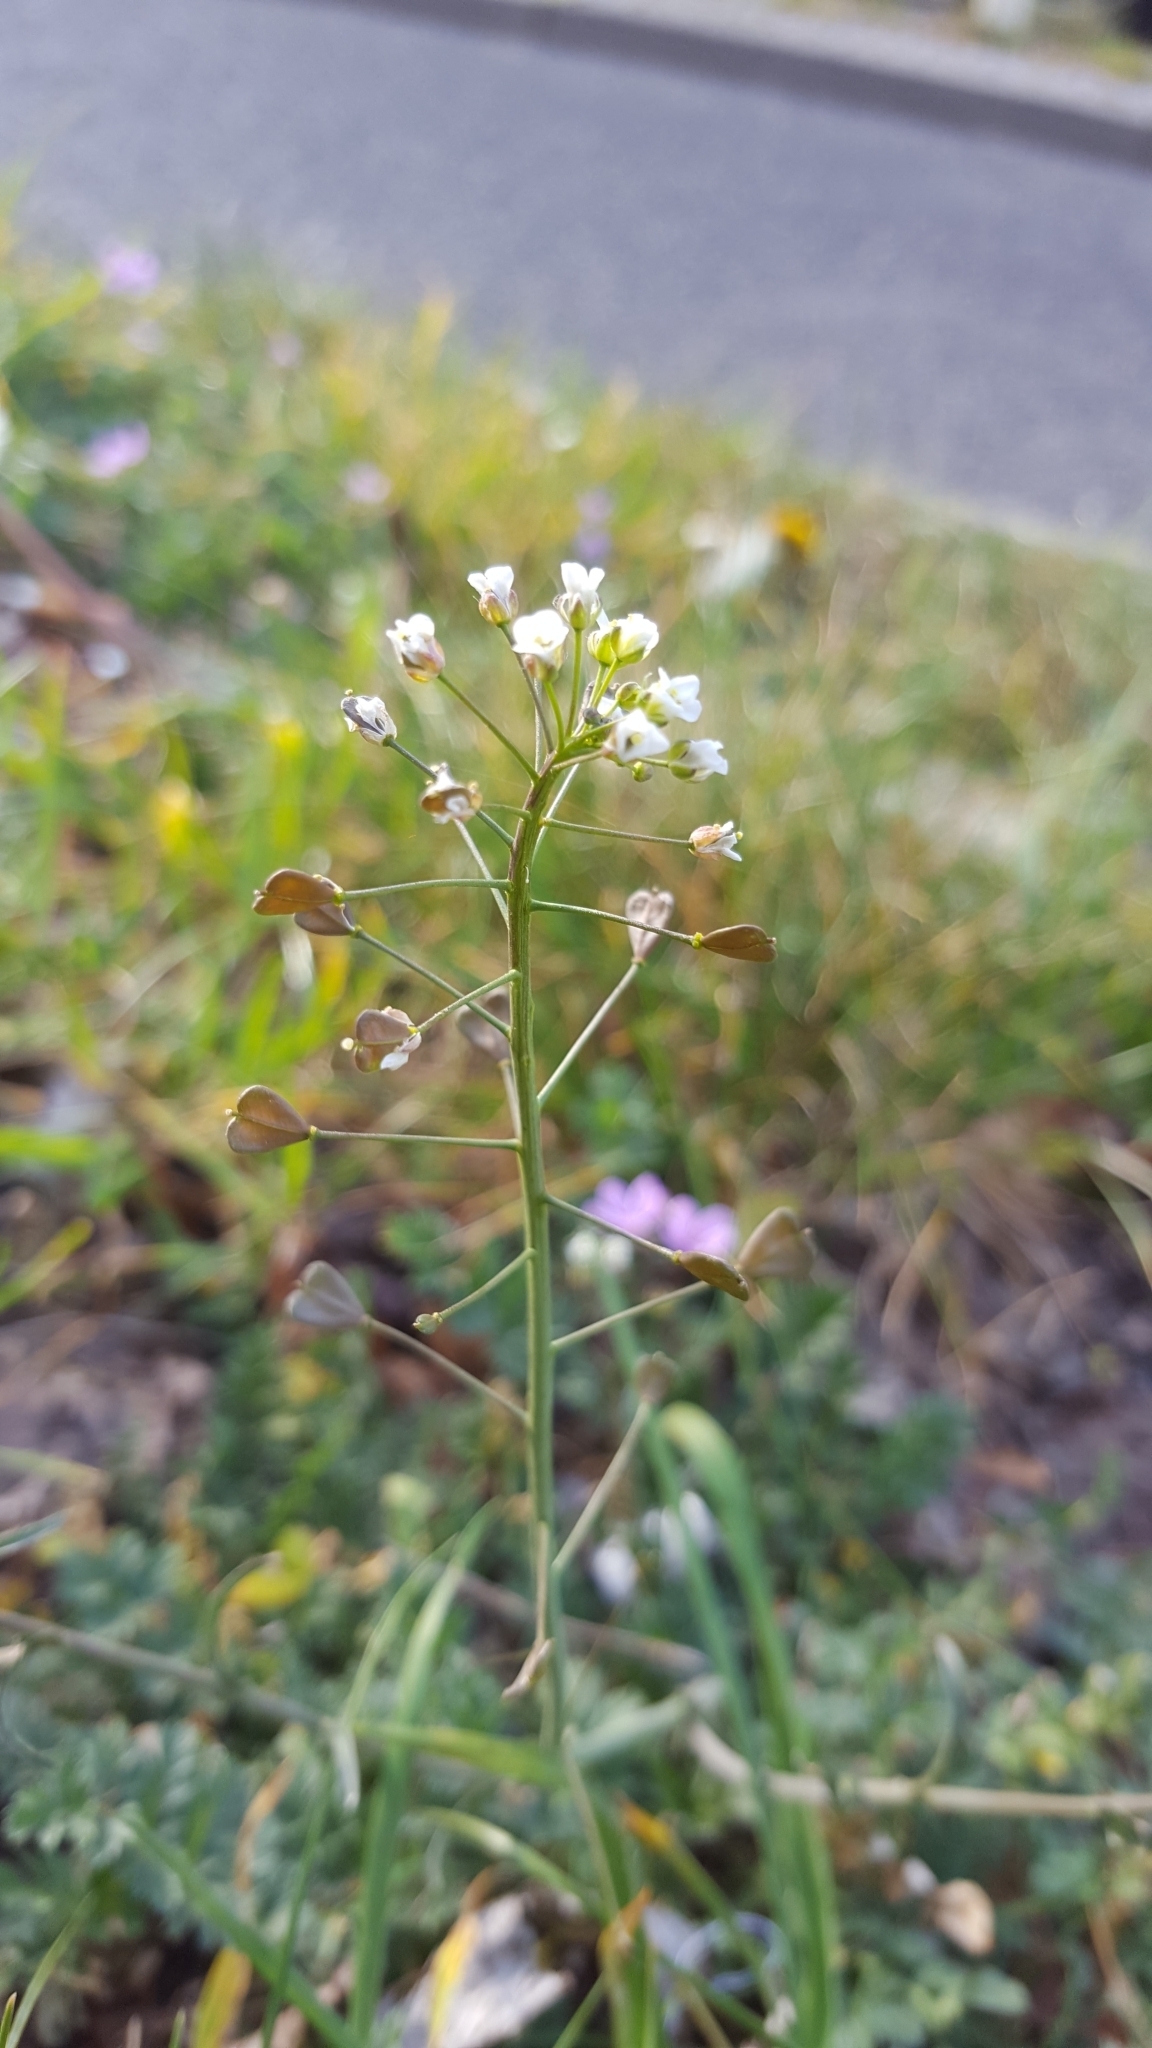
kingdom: Plantae
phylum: Tracheophyta
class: Magnoliopsida
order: Brassicales
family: Brassicaceae
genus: Capsella
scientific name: Capsella bursa-pastoris
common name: Shepherd's purse
